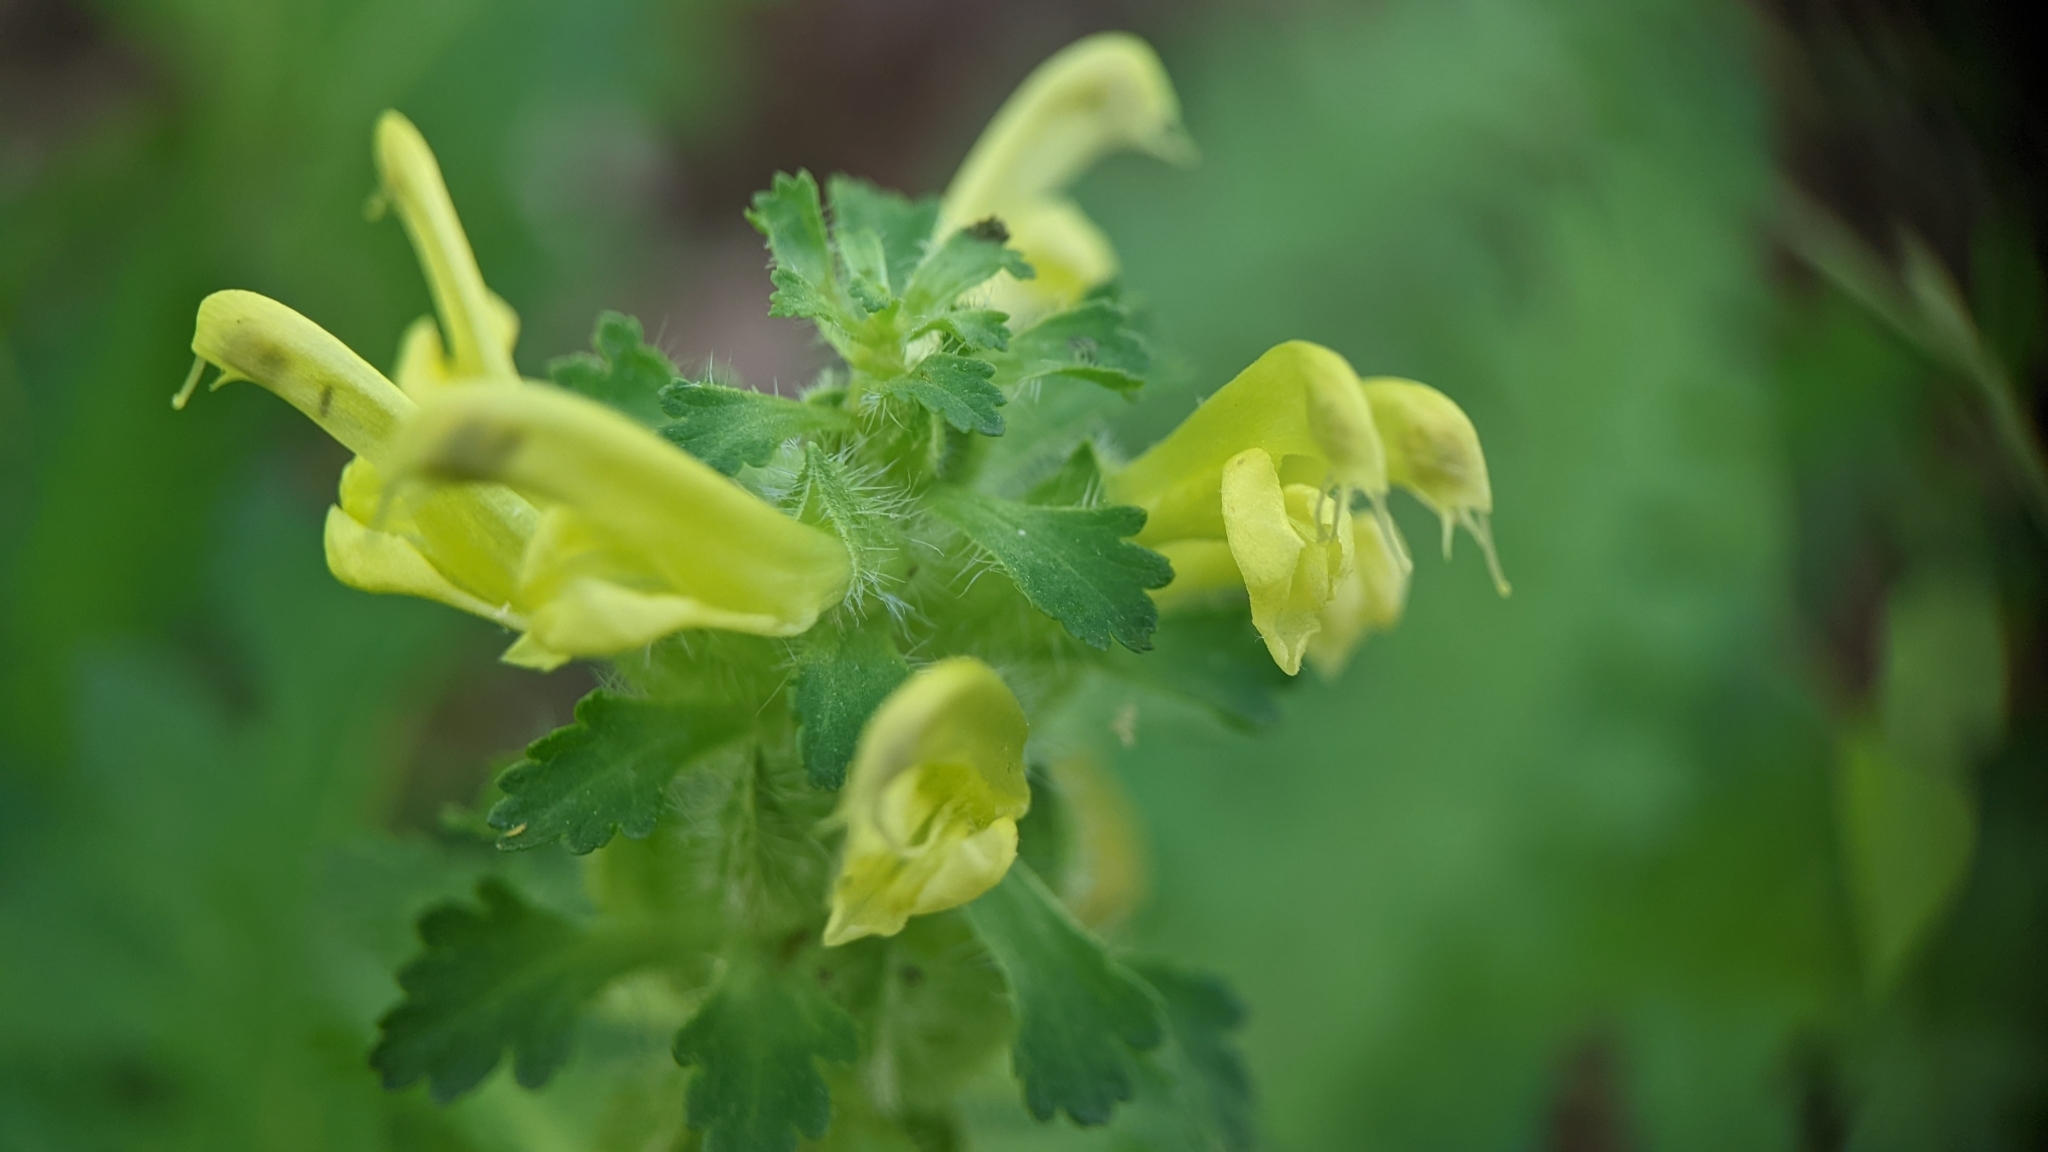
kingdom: Plantae
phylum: Tracheophyta
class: Magnoliopsida
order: Lamiales
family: Orobanchaceae
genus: Pedicularis
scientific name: Pedicularis canadensis
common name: Early lousewort
